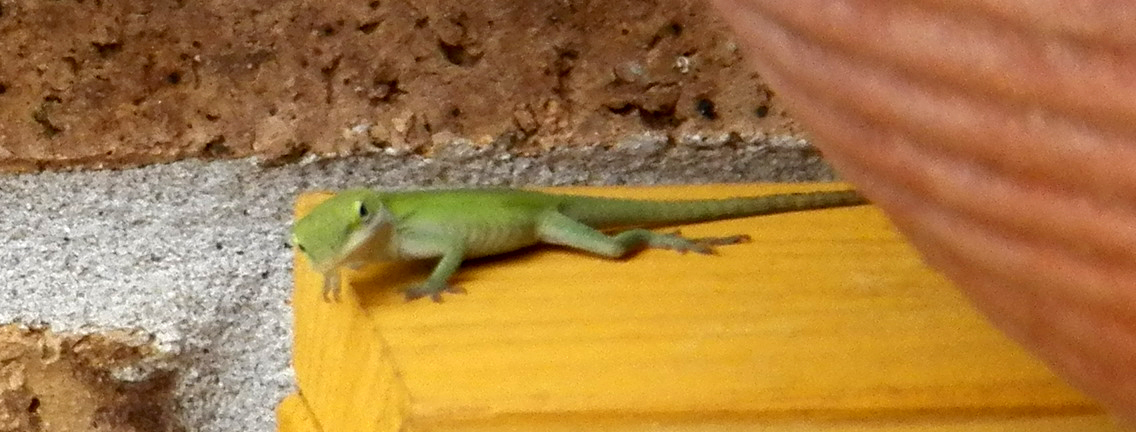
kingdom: Animalia
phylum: Chordata
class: Squamata
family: Dactyloidae
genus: Anolis
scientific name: Anolis carolinensis
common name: Green anole
